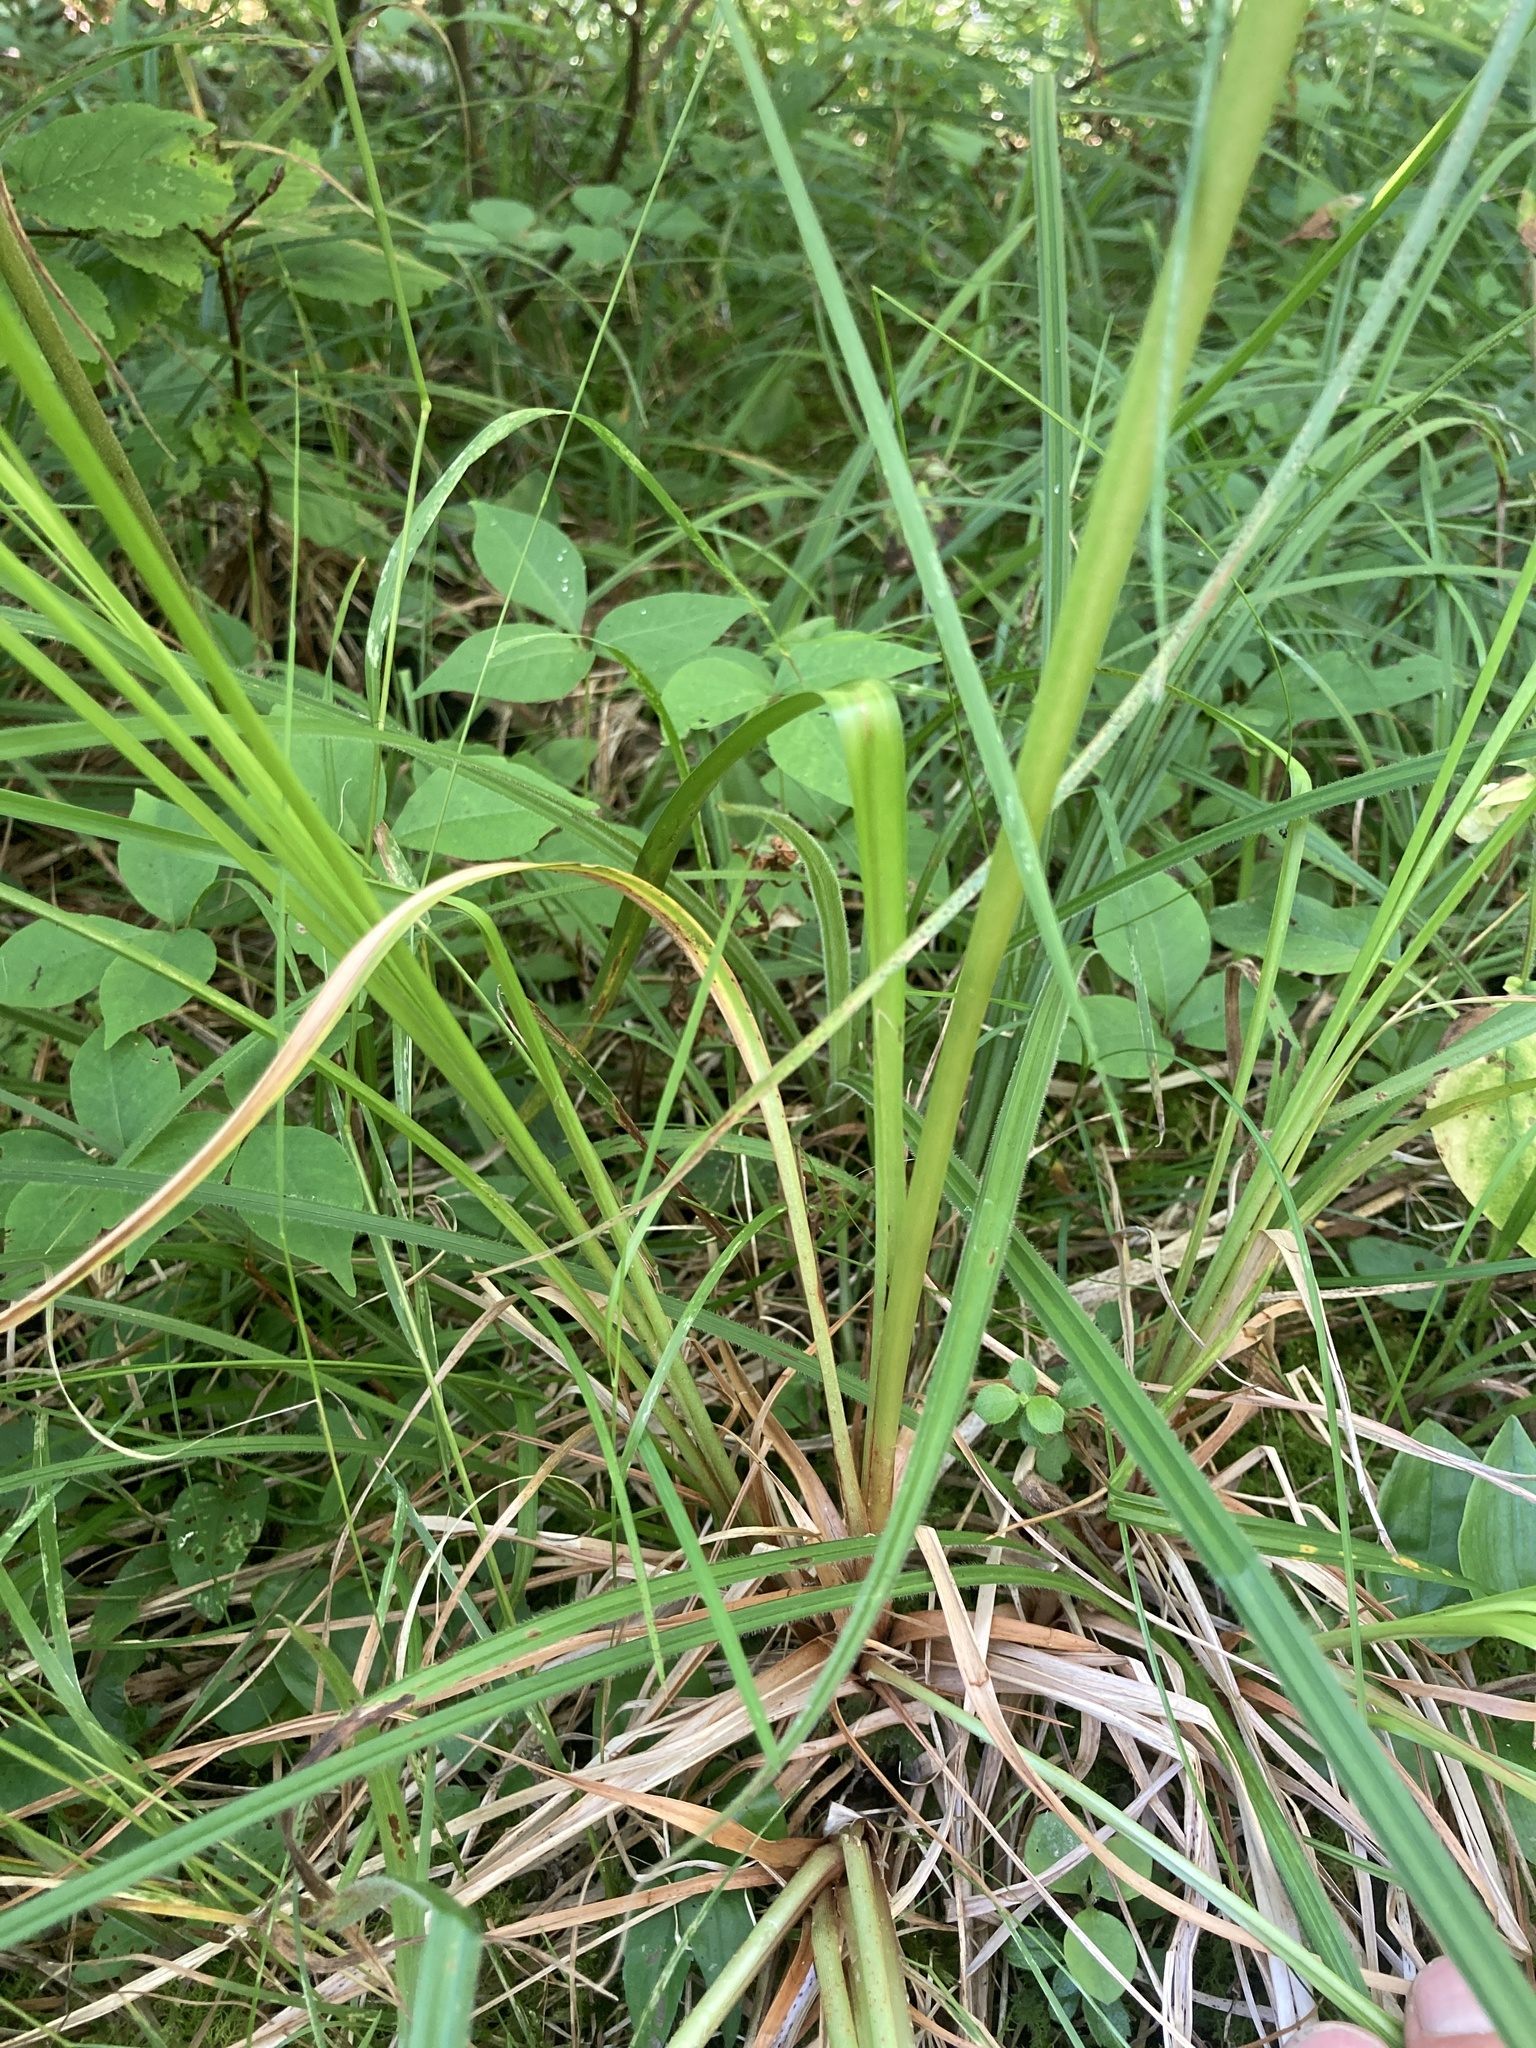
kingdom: Plantae
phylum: Tracheophyta
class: Liliopsida
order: Poales
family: Cyperaceae
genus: Scirpus
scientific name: Scirpus cyperinus
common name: Black-sheathed bulrush
